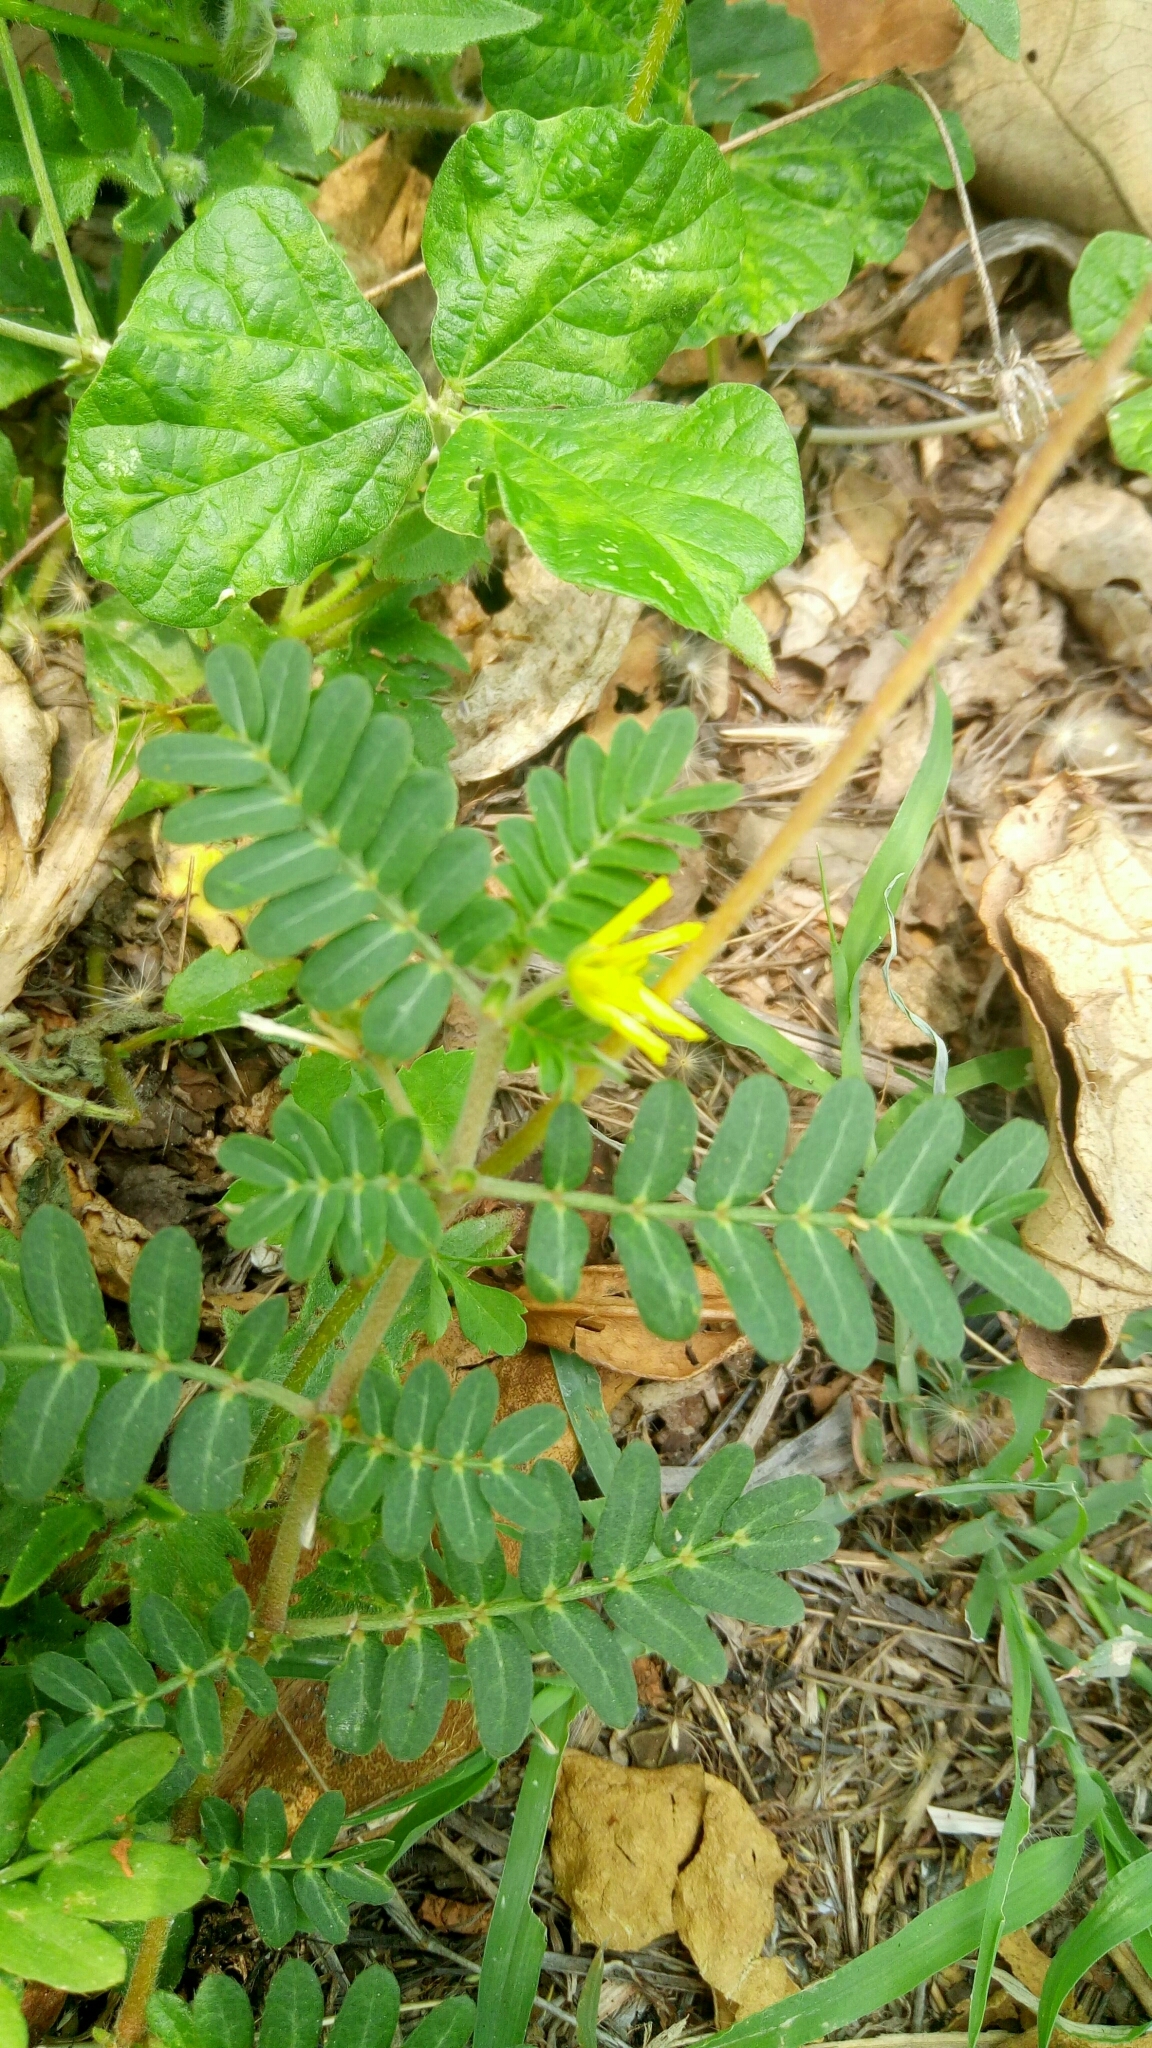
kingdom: Plantae
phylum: Tracheophyta
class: Magnoliopsida
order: Zygophyllales
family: Zygophyllaceae
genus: Tribulus
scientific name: Tribulus cistoides
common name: Jamaican feverplant
